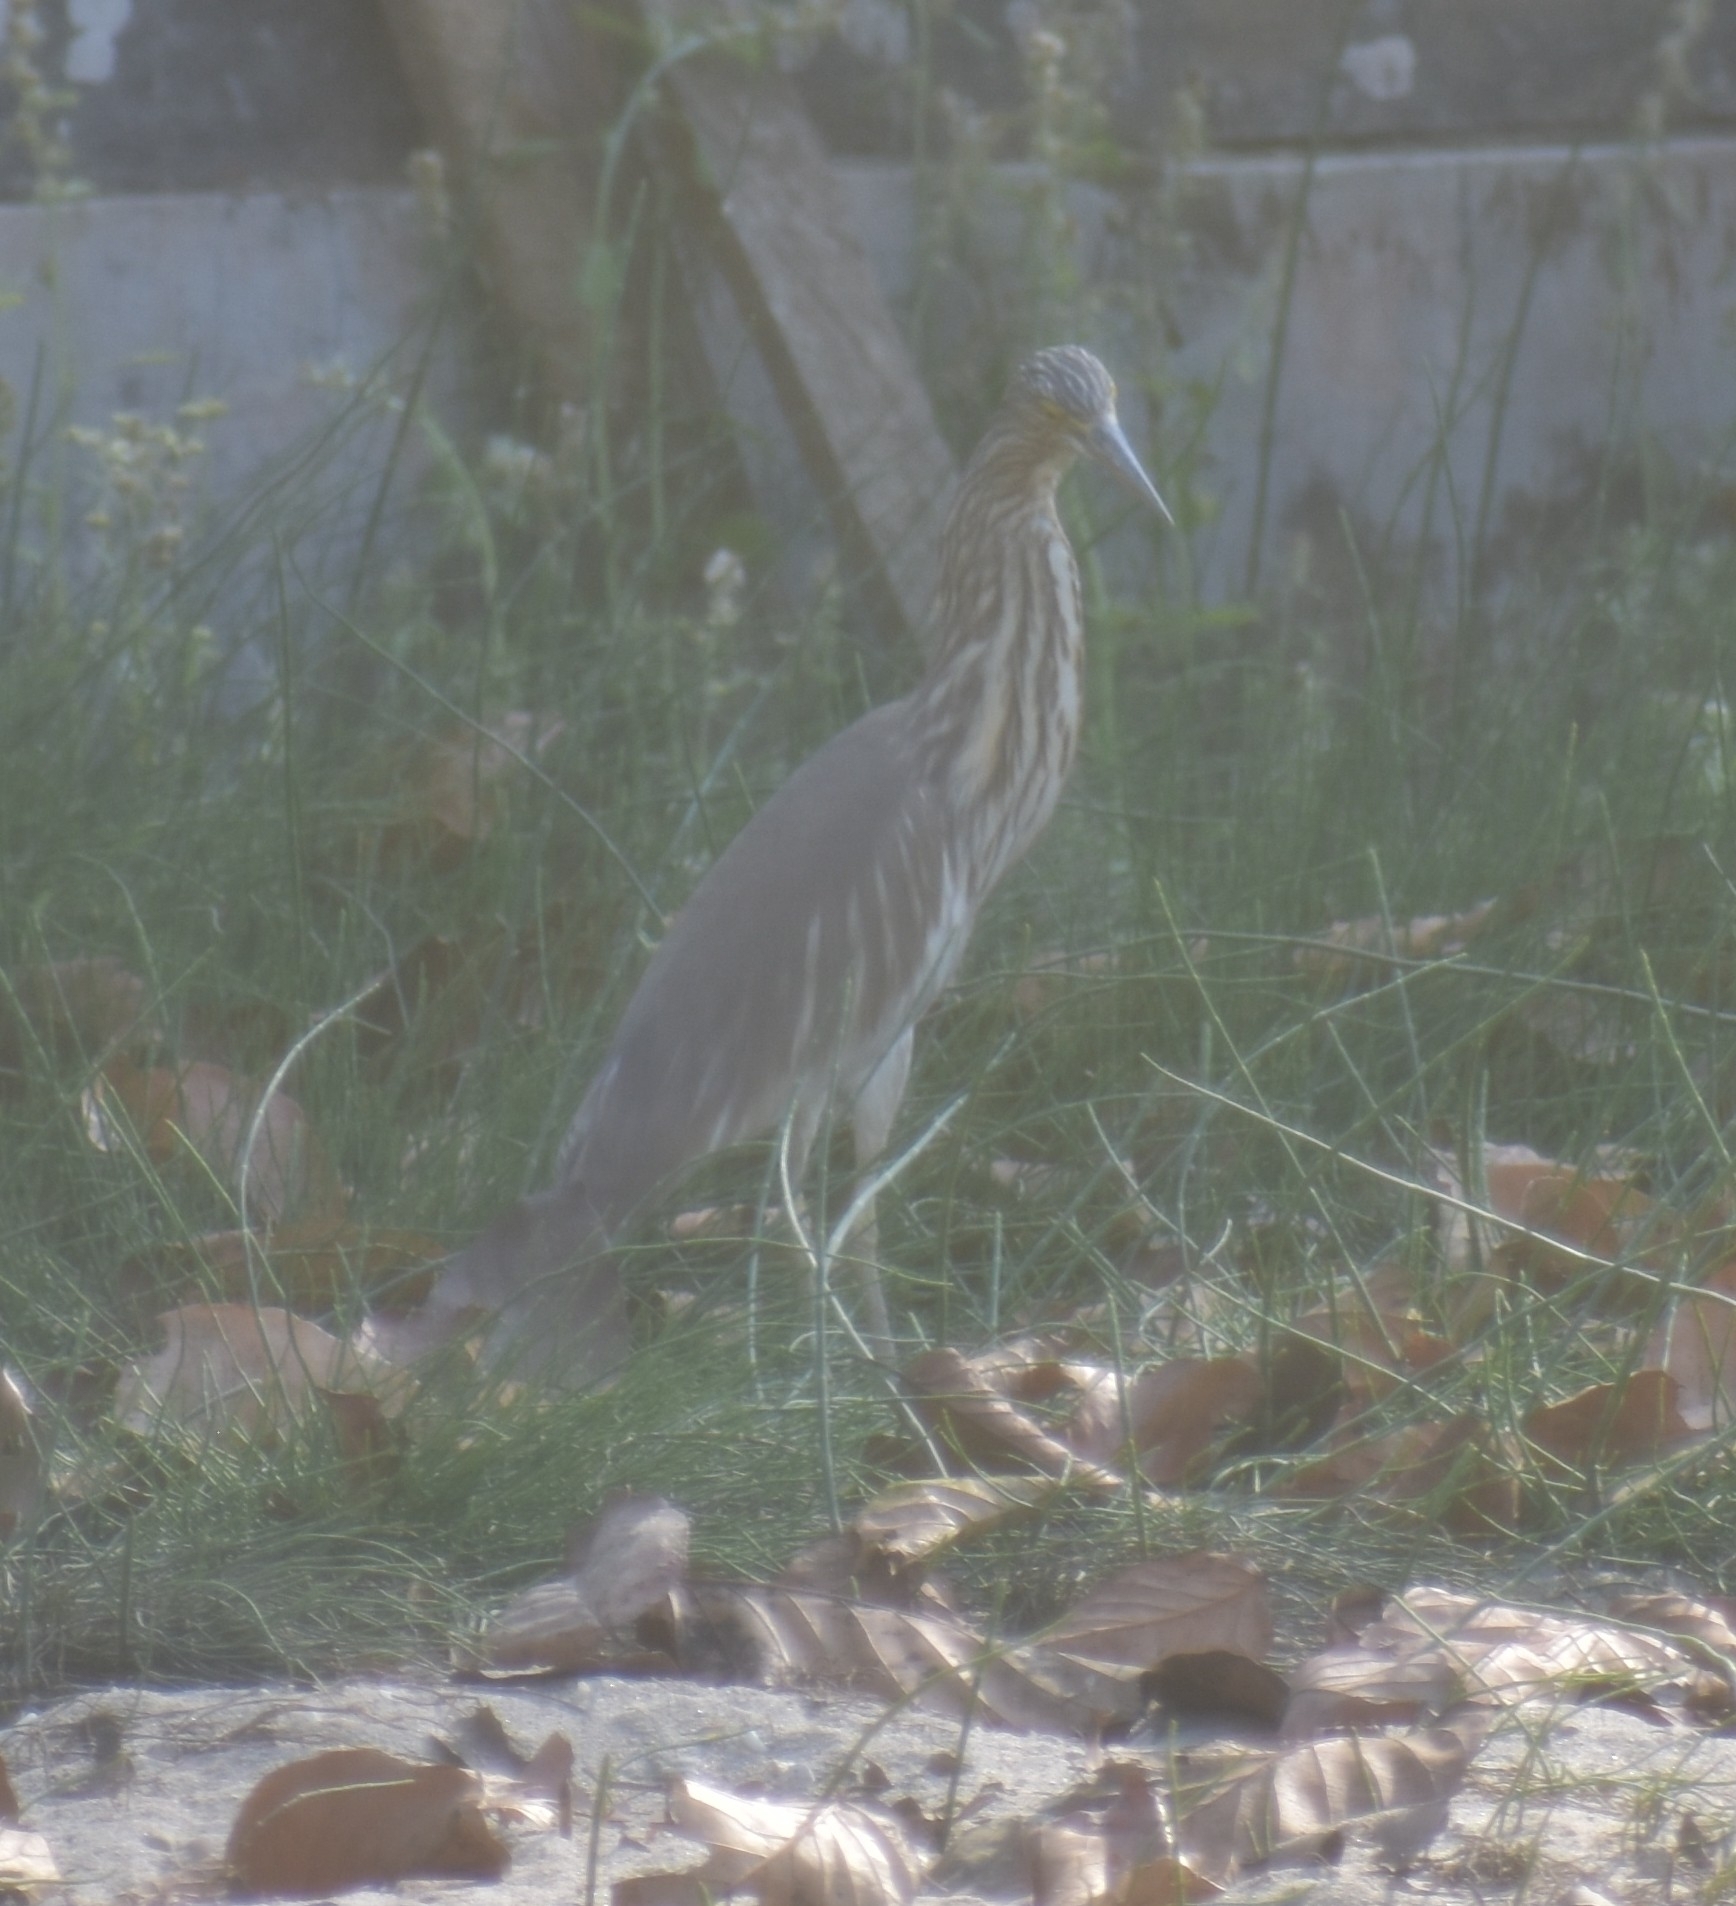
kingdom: Animalia
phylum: Chordata
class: Aves
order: Pelecaniformes
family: Ardeidae
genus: Ardeola
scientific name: Ardeola grayii
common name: Indian pond heron
